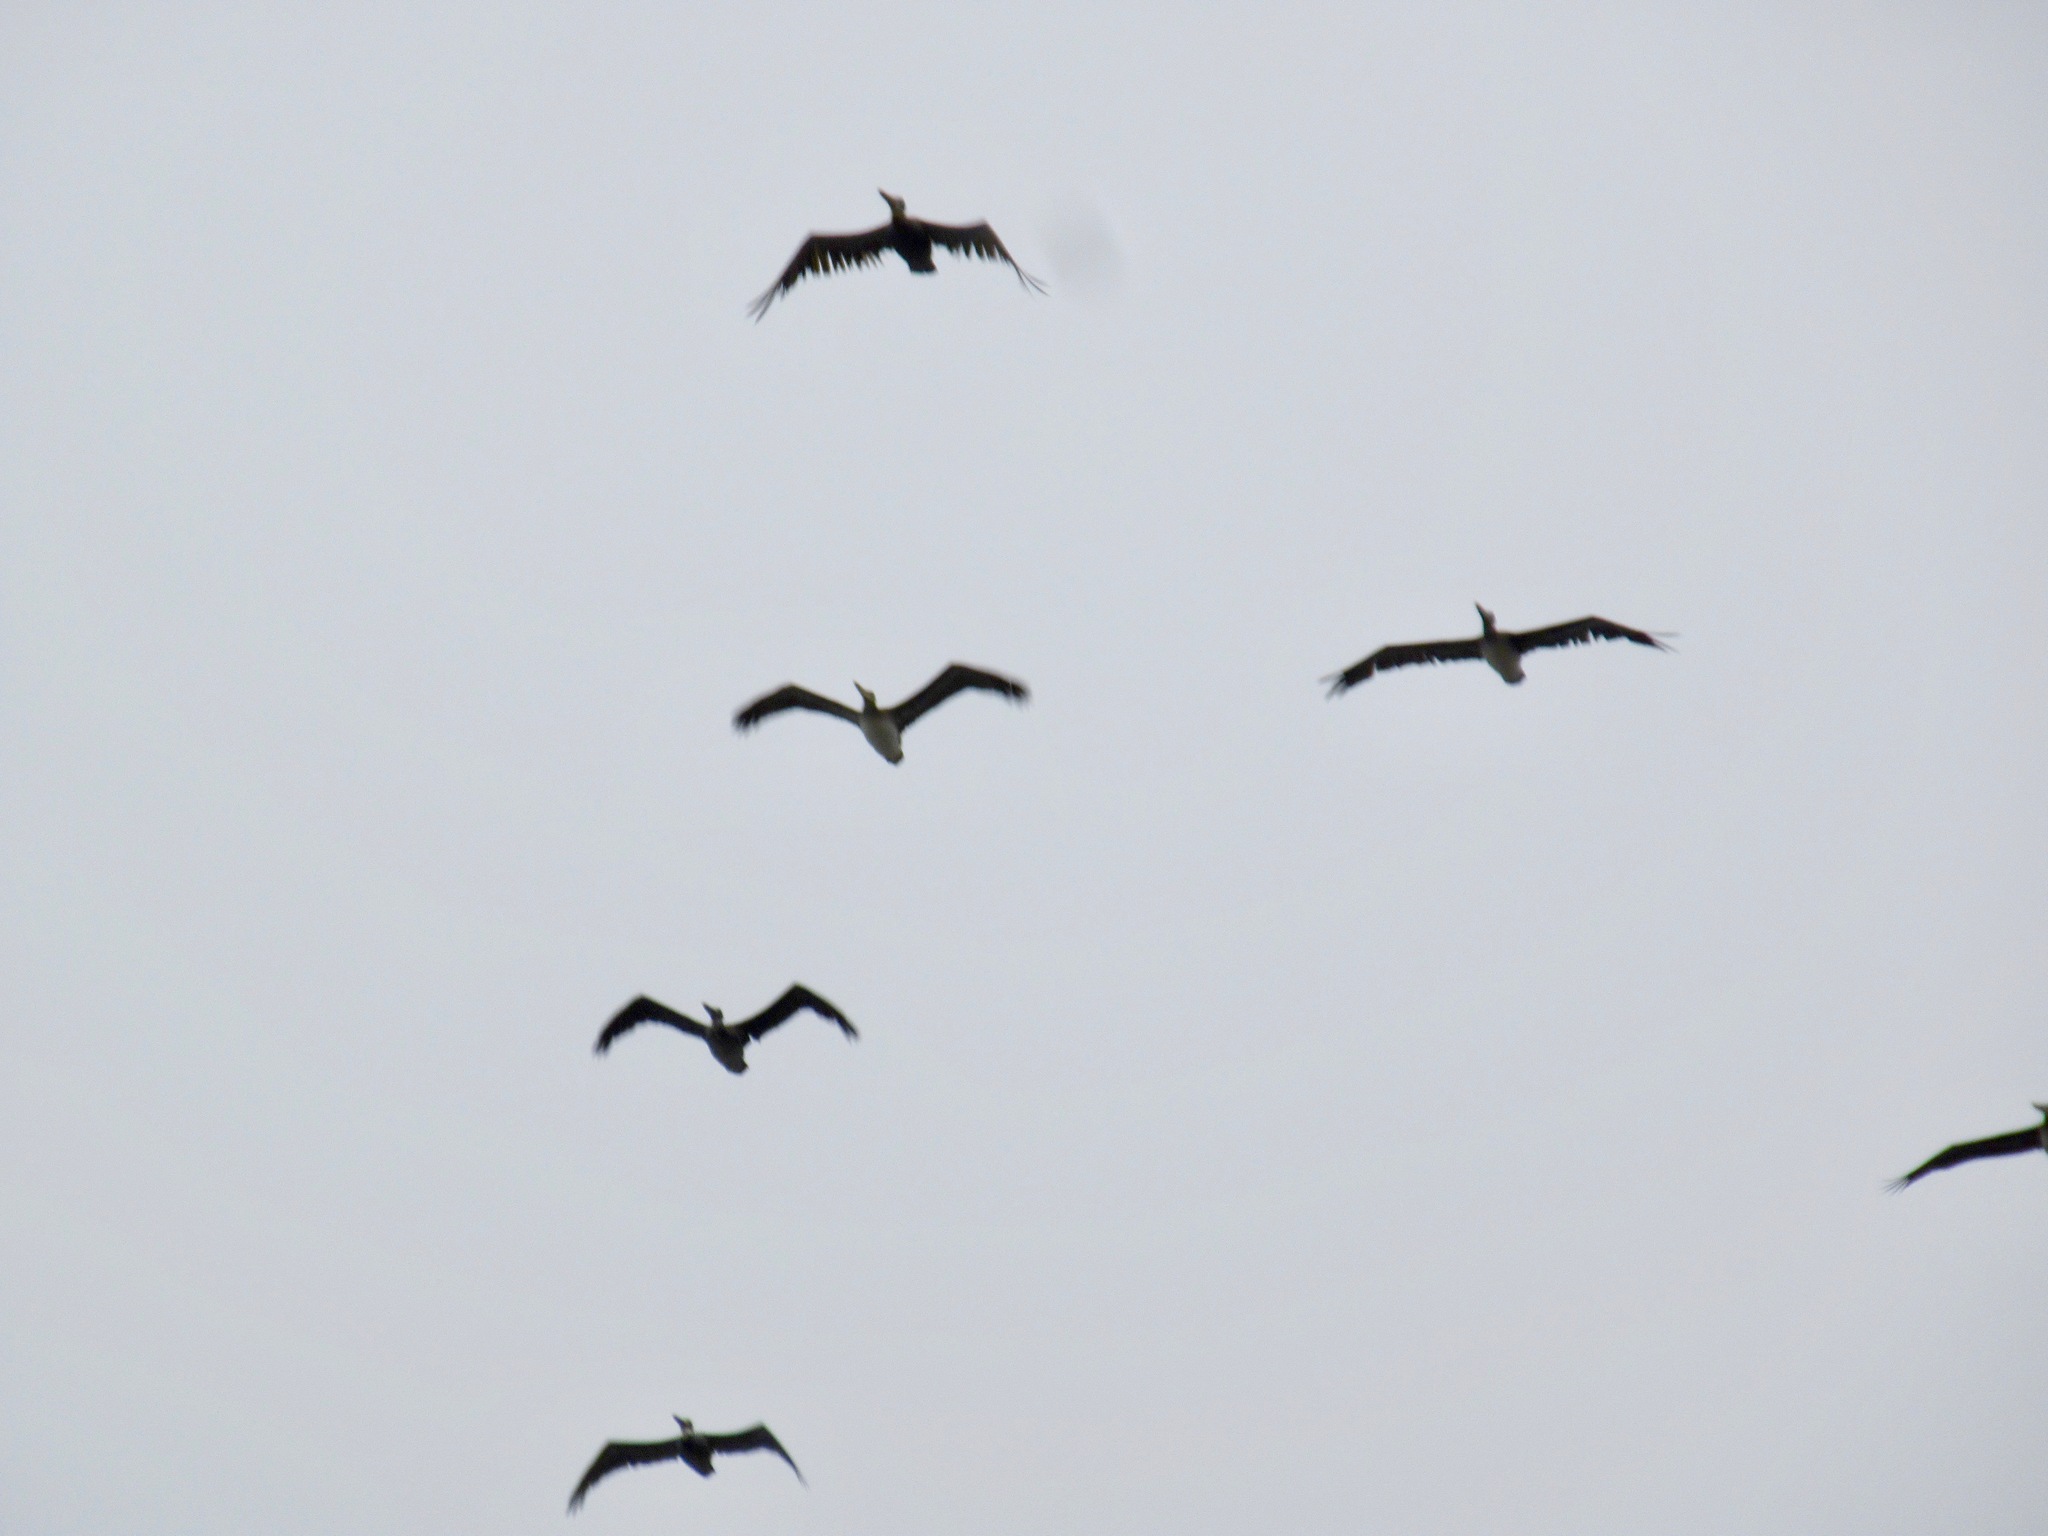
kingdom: Animalia
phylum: Chordata
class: Aves
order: Pelecaniformes
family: Pelecanidae
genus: Pelecanus
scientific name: Pelecanus occidentalis
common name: Brown pelican
